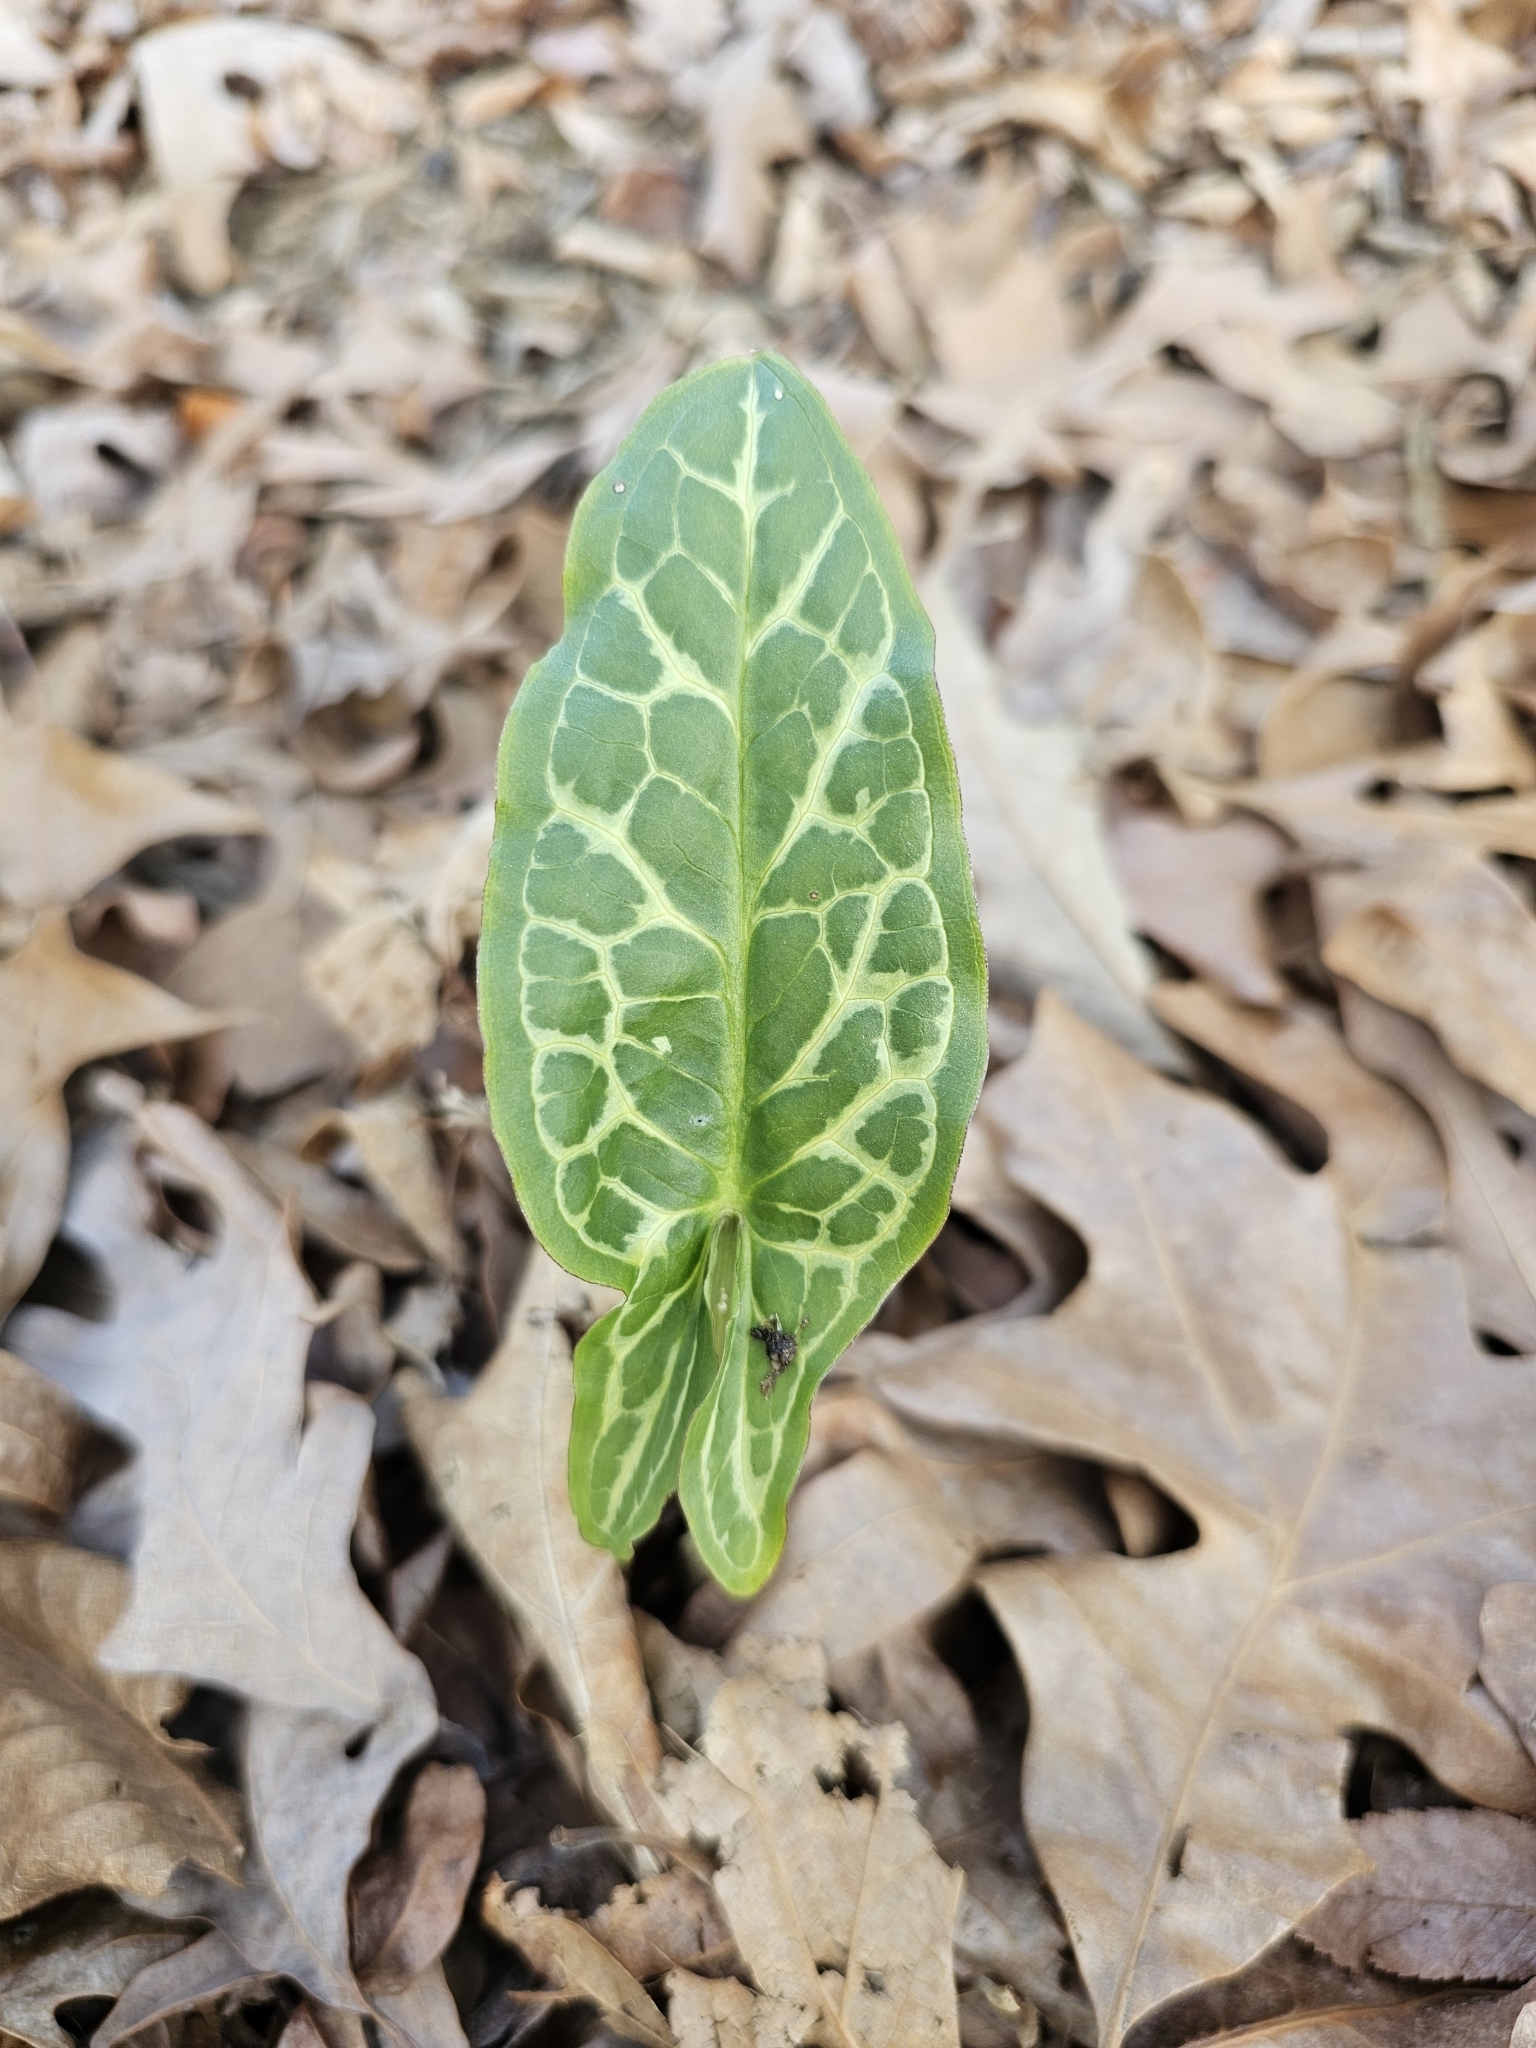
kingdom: Plantae
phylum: Tracheophyta
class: Liliopsida
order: Alismatales
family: Araceae
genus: Arum
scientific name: Arum italicum
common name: Italian lords-and-ladies
